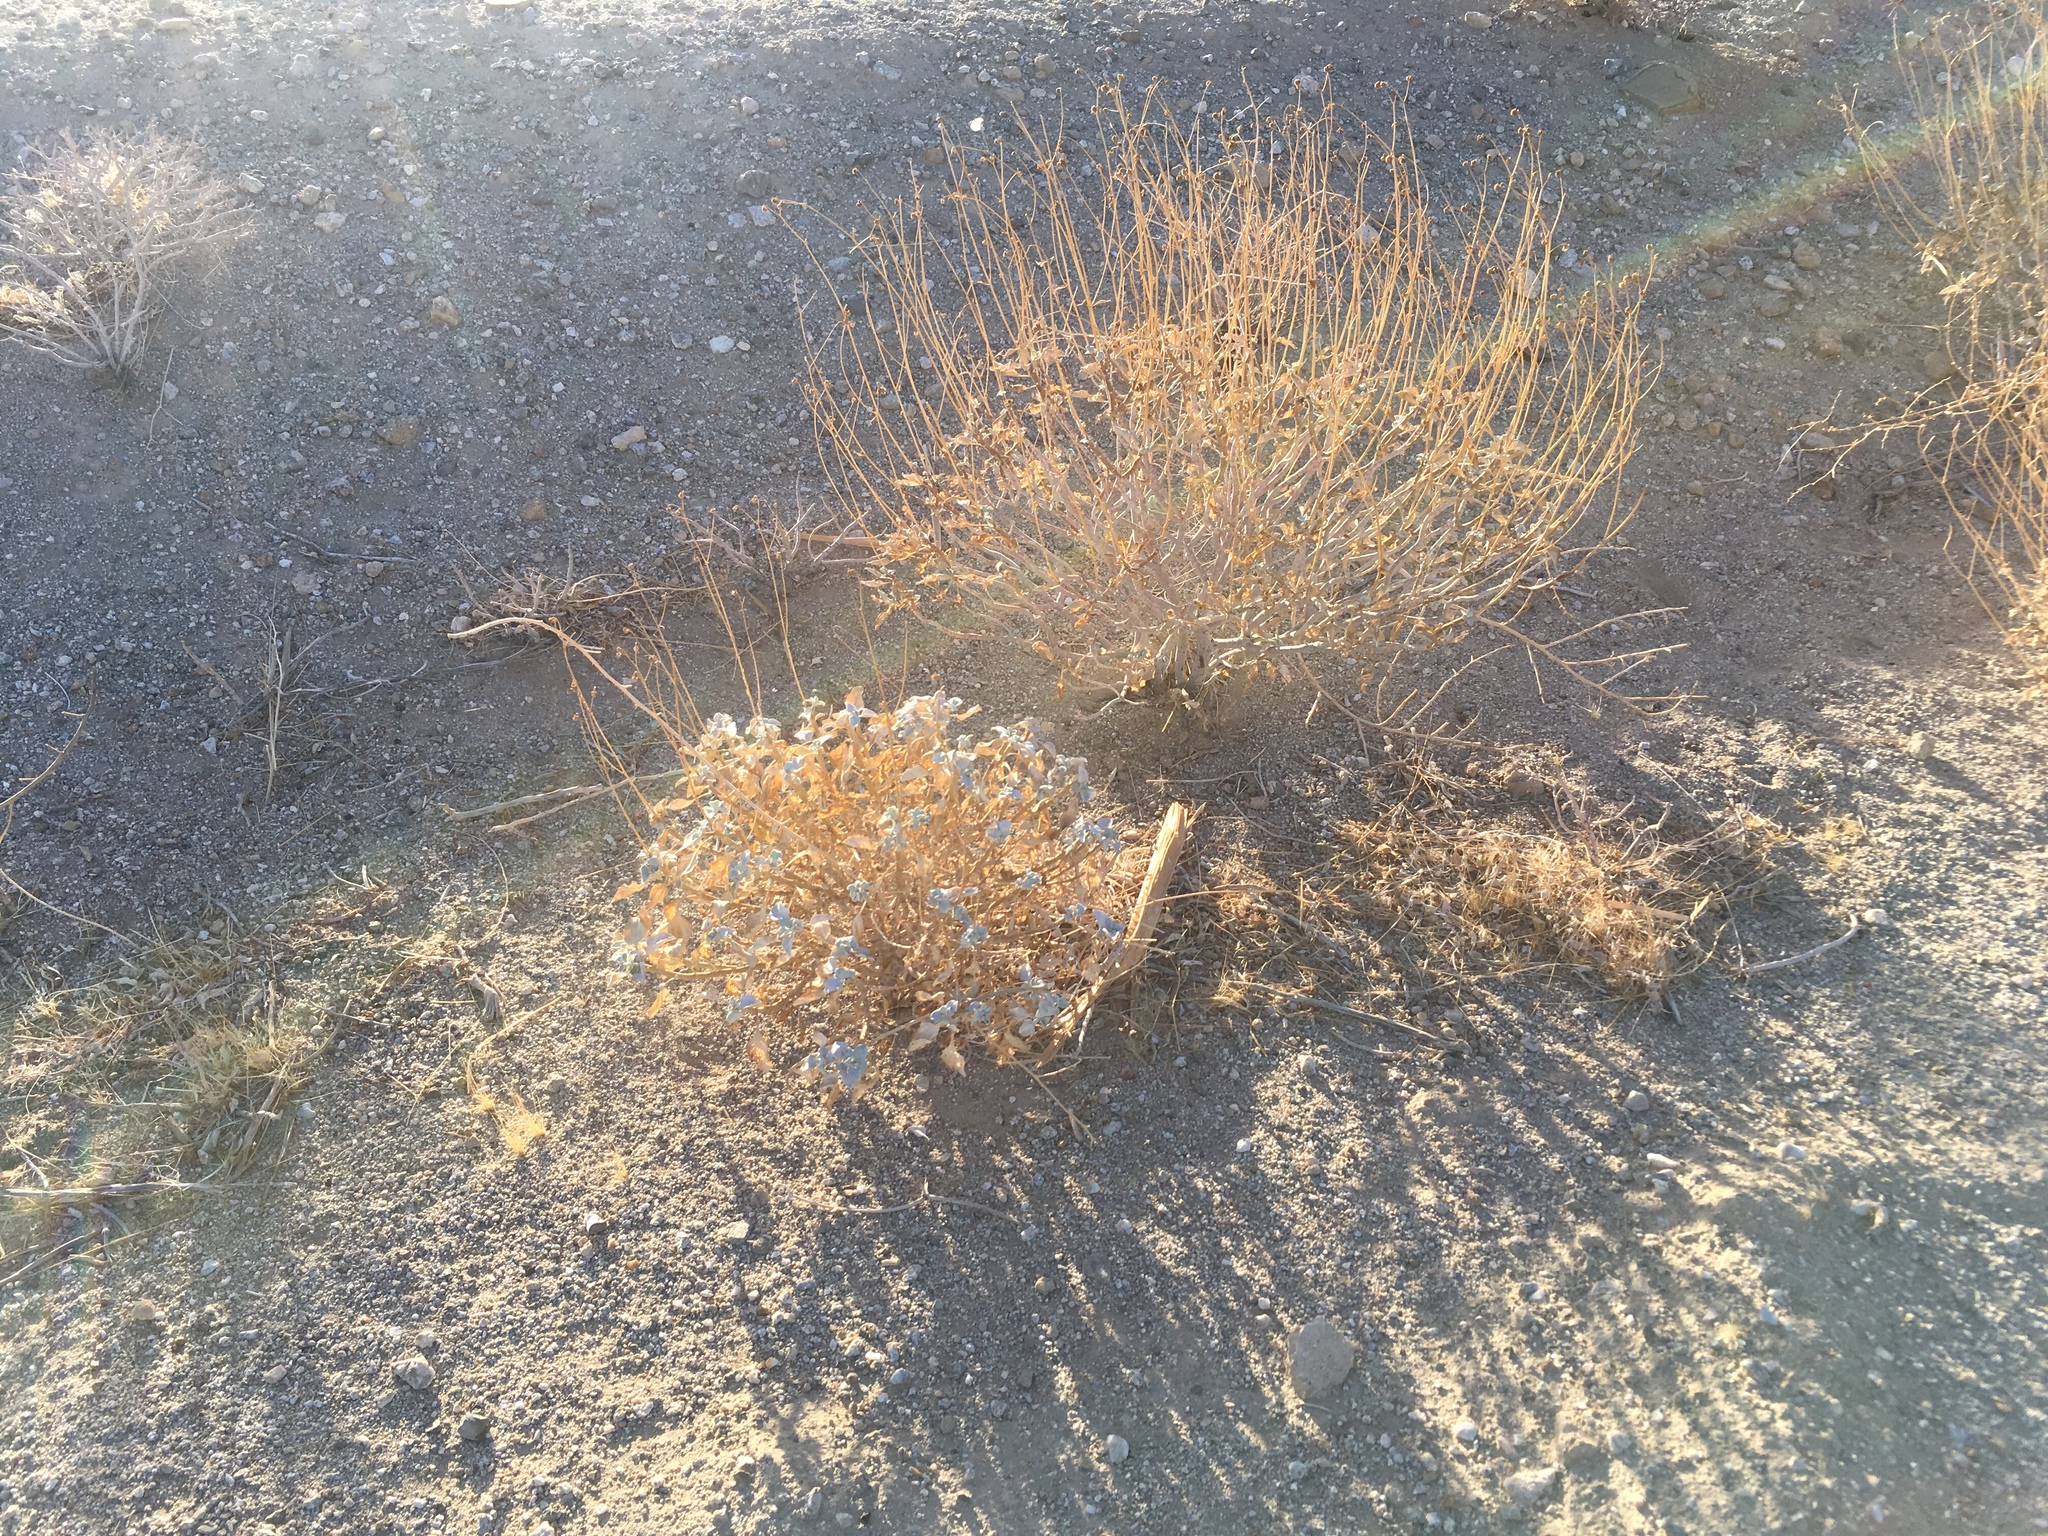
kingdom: Plantae
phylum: Tracheophyta
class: Magnoliopsida
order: Asterales
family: Asteraceae
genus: Encelia
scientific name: Encelia farinosa
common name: Brittlebush
